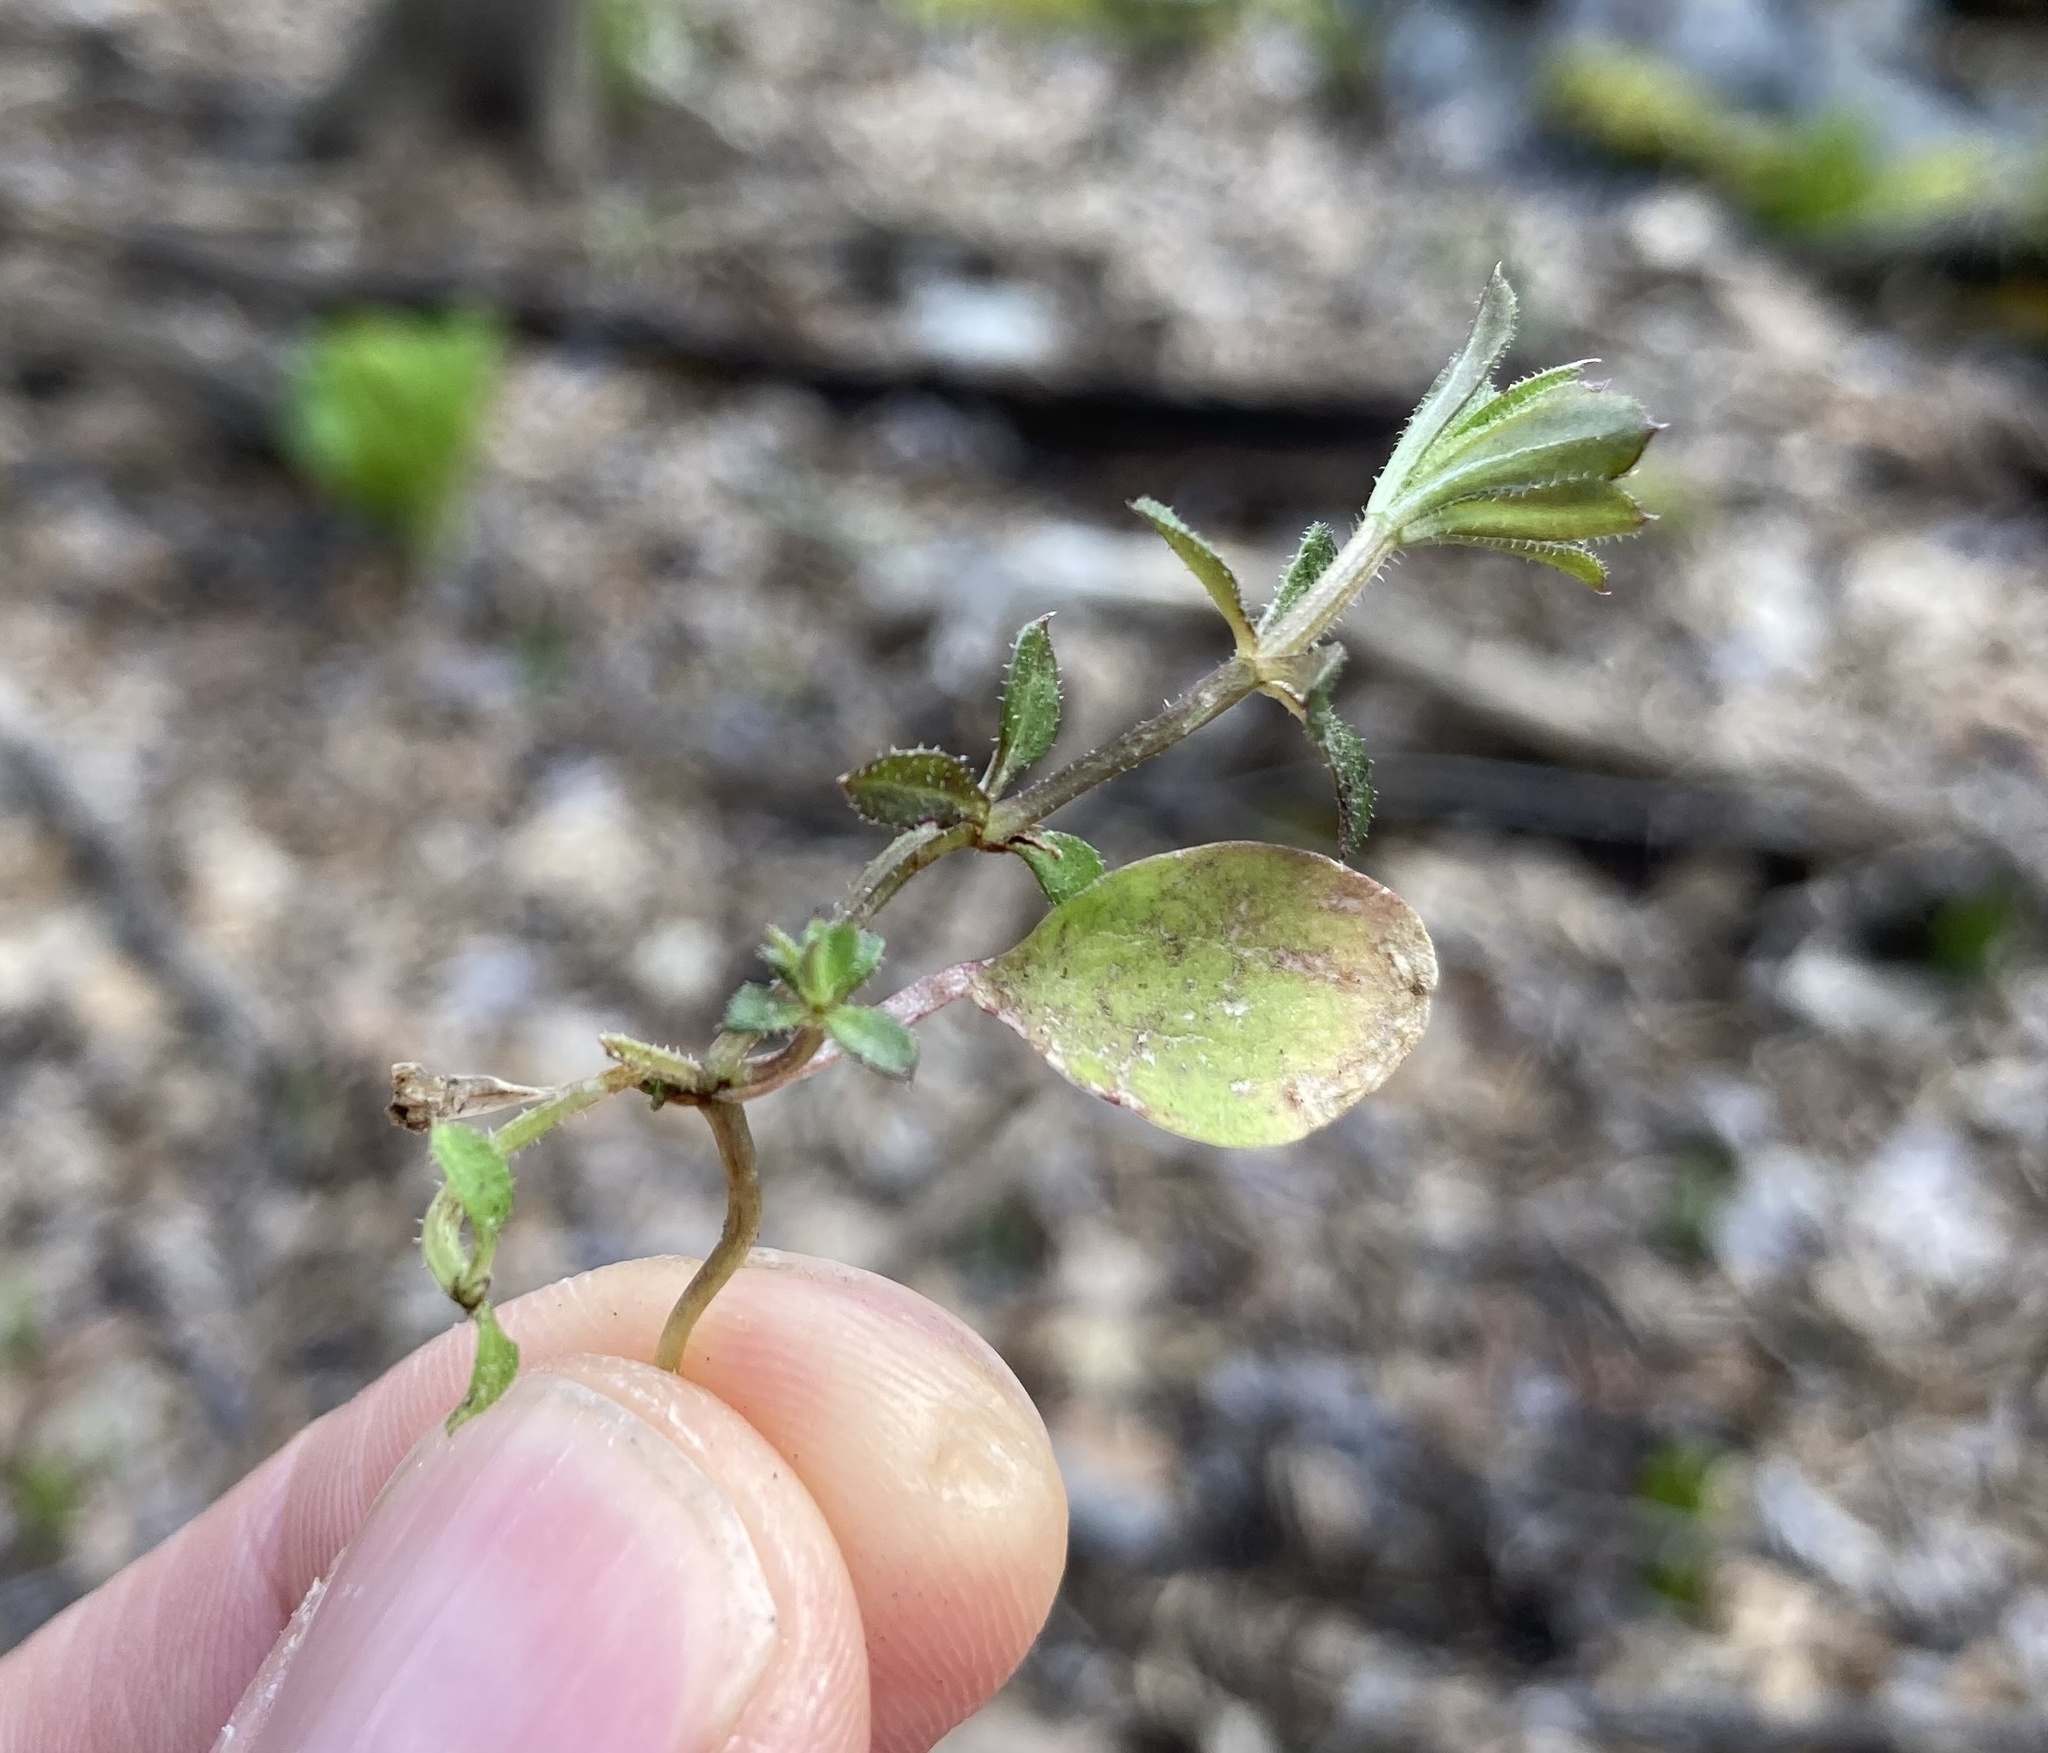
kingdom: Plantae
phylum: Tracheophyta
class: Magnoliopsida
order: Gentianales
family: Rubiaceae
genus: Galium
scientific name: Galium aparine
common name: Cleavers
